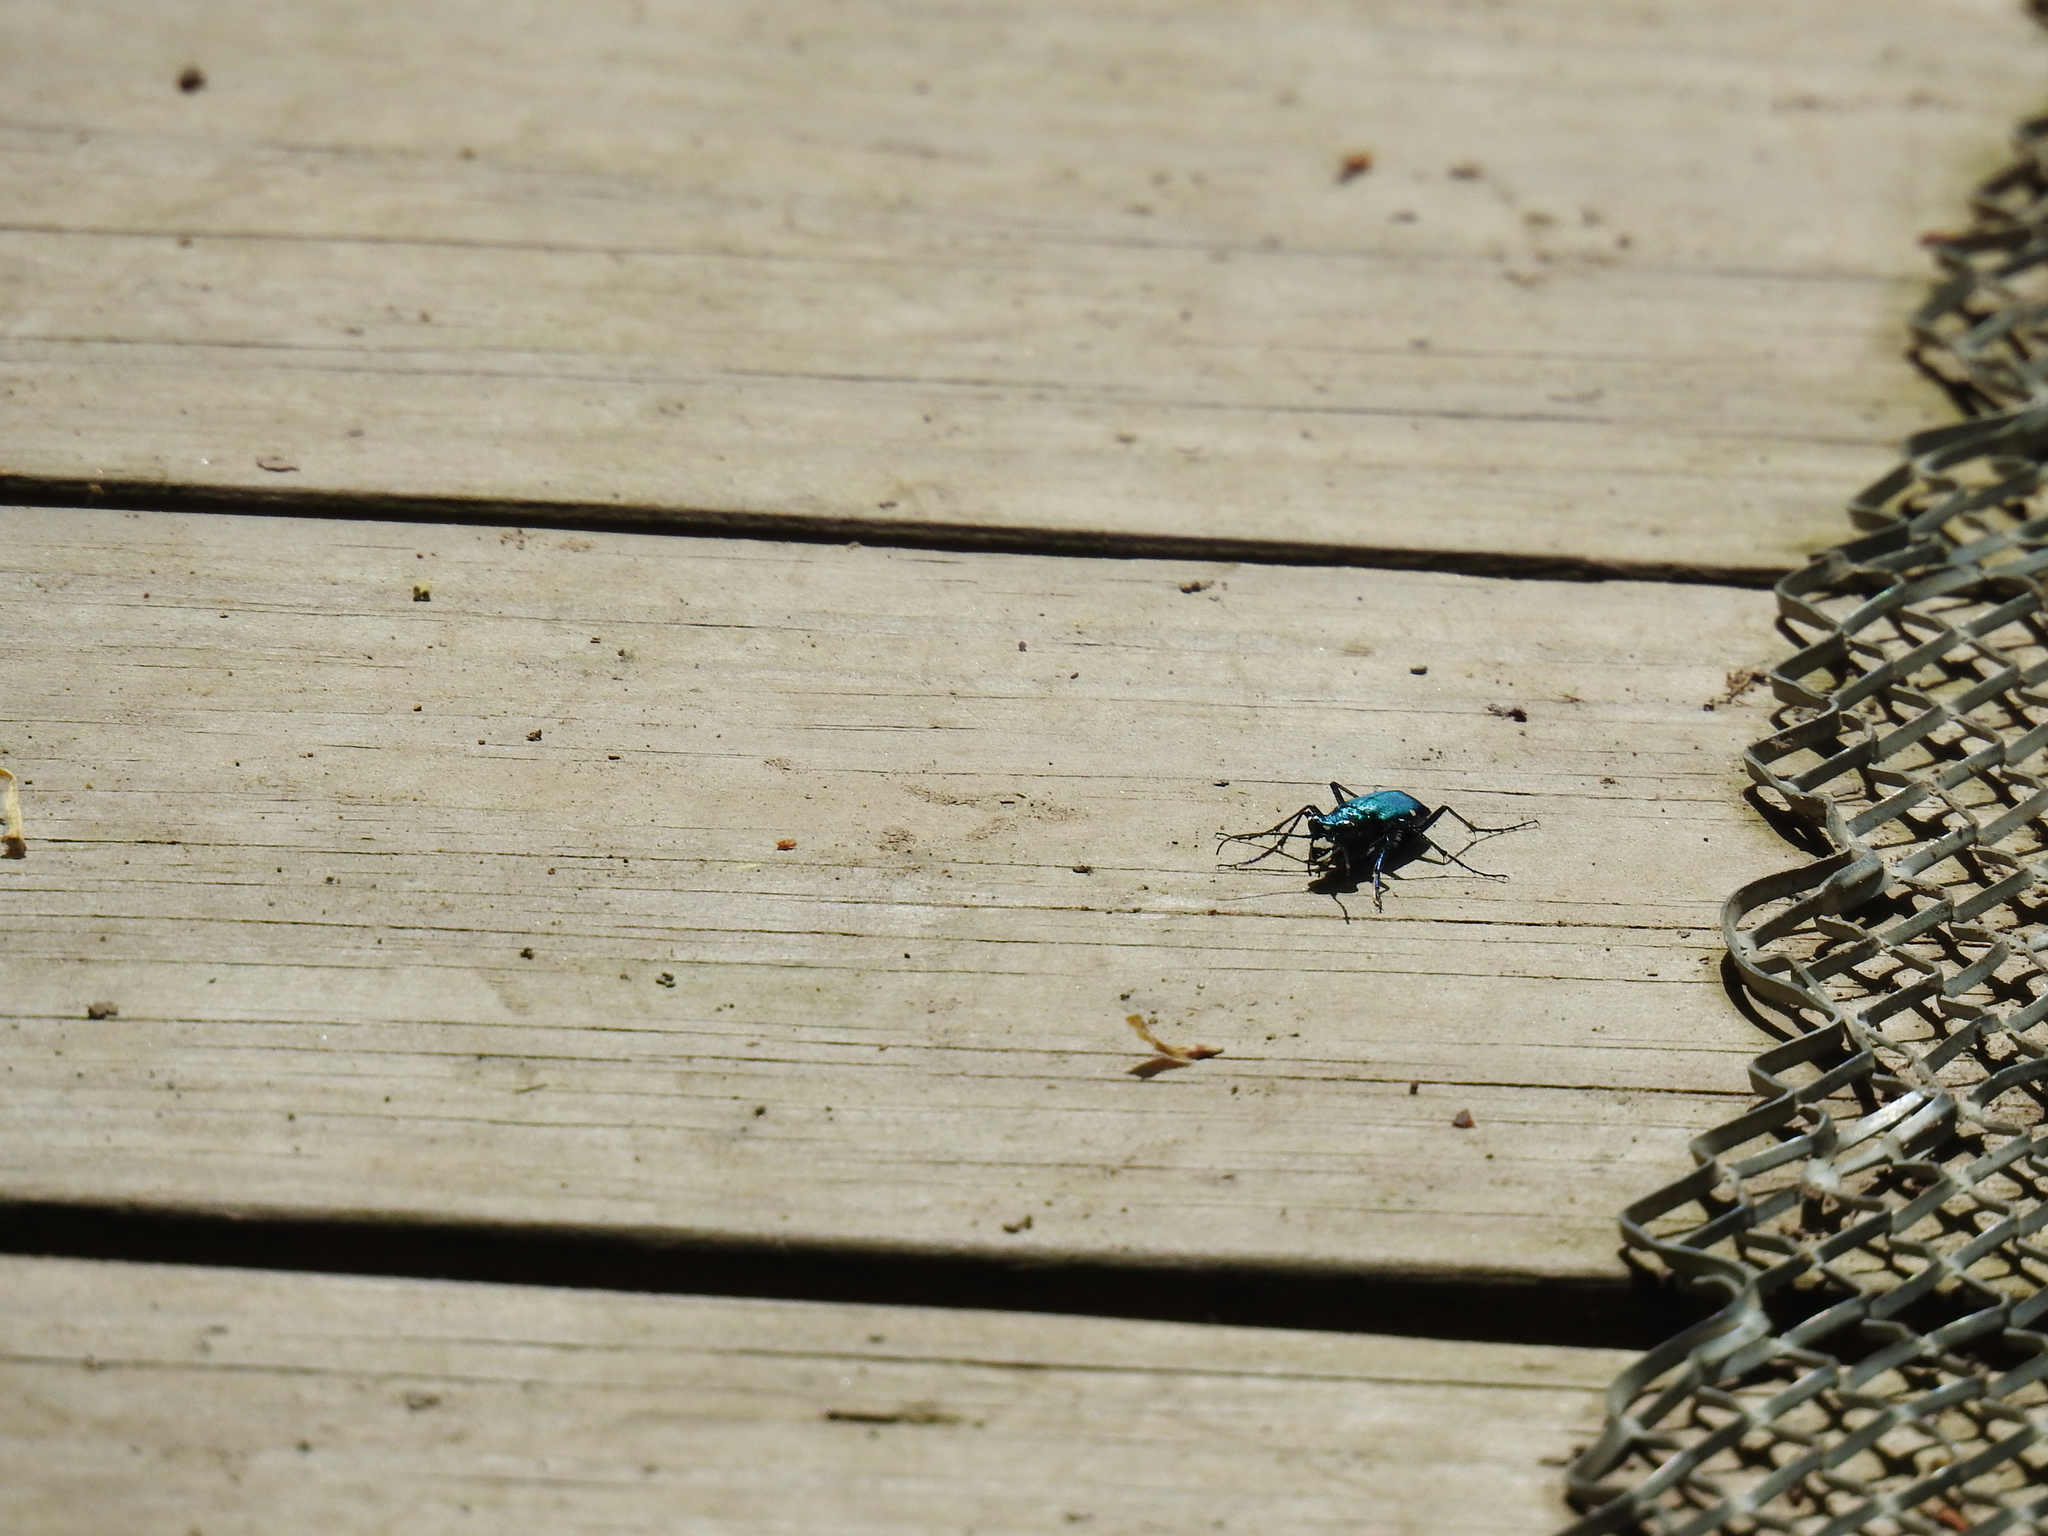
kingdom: Animalia
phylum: Arthropoda
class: Insecta
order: Coleoptera
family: Carabidae
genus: Cicindela
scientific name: Cicindela sexguttata
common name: Six-spotted tiger beetle
